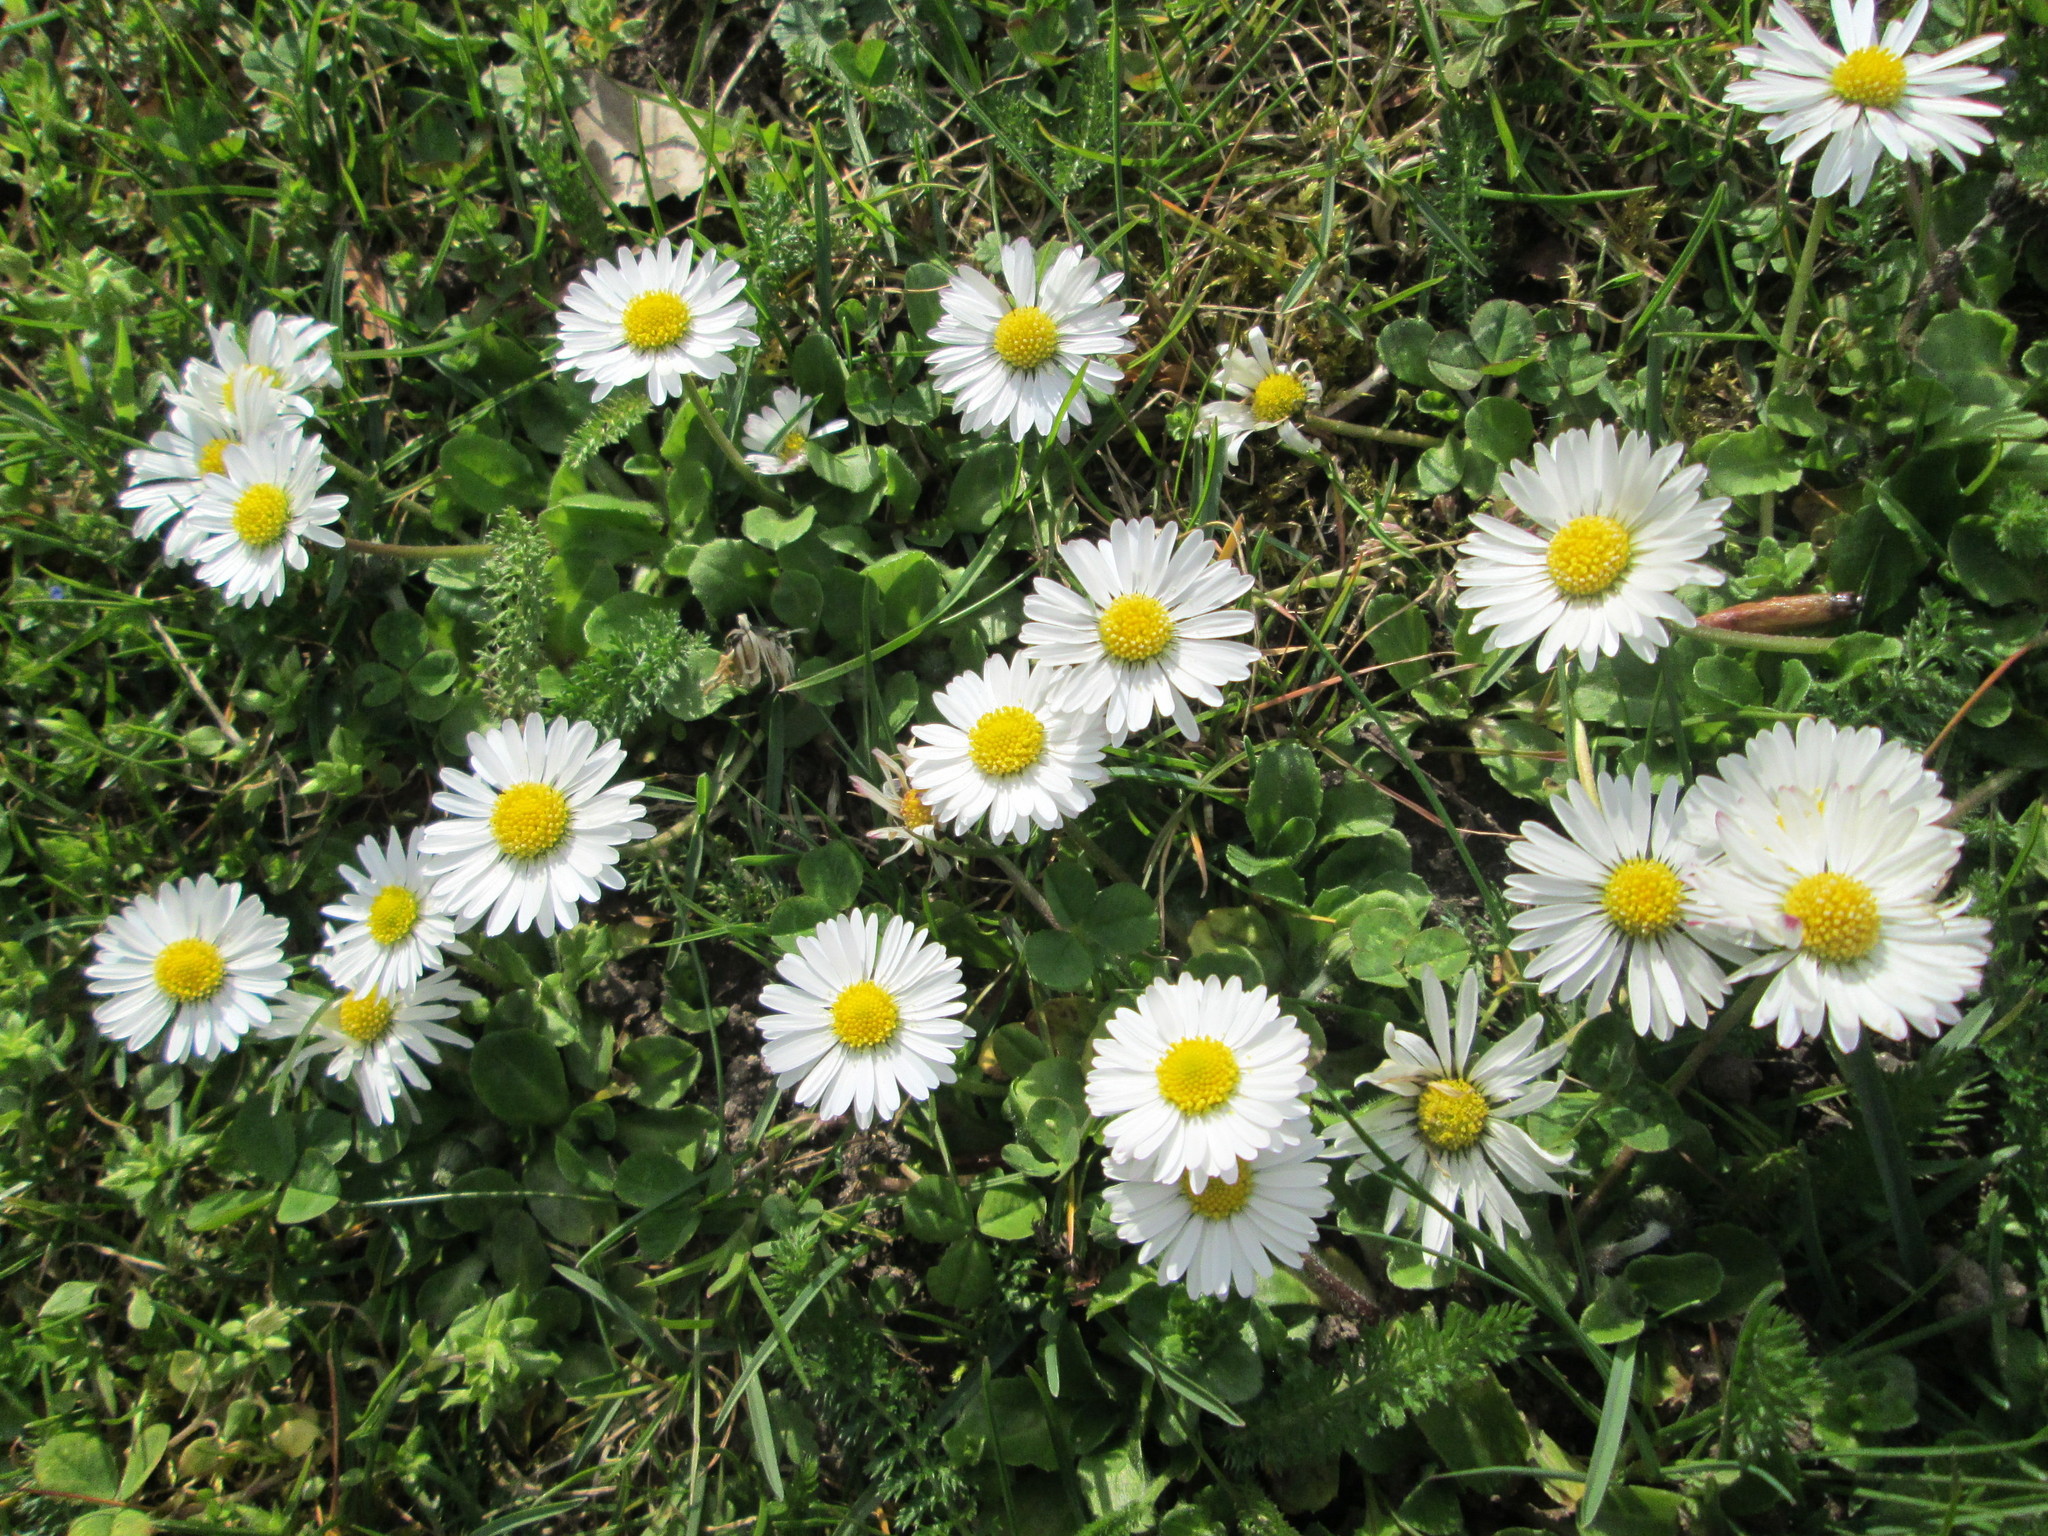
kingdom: Plantae
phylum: Tracheophyta
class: Magnoliopsida
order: Asterales
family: Asteraceae
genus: Bellis
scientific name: Bellis perennis
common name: Lawndaisy
